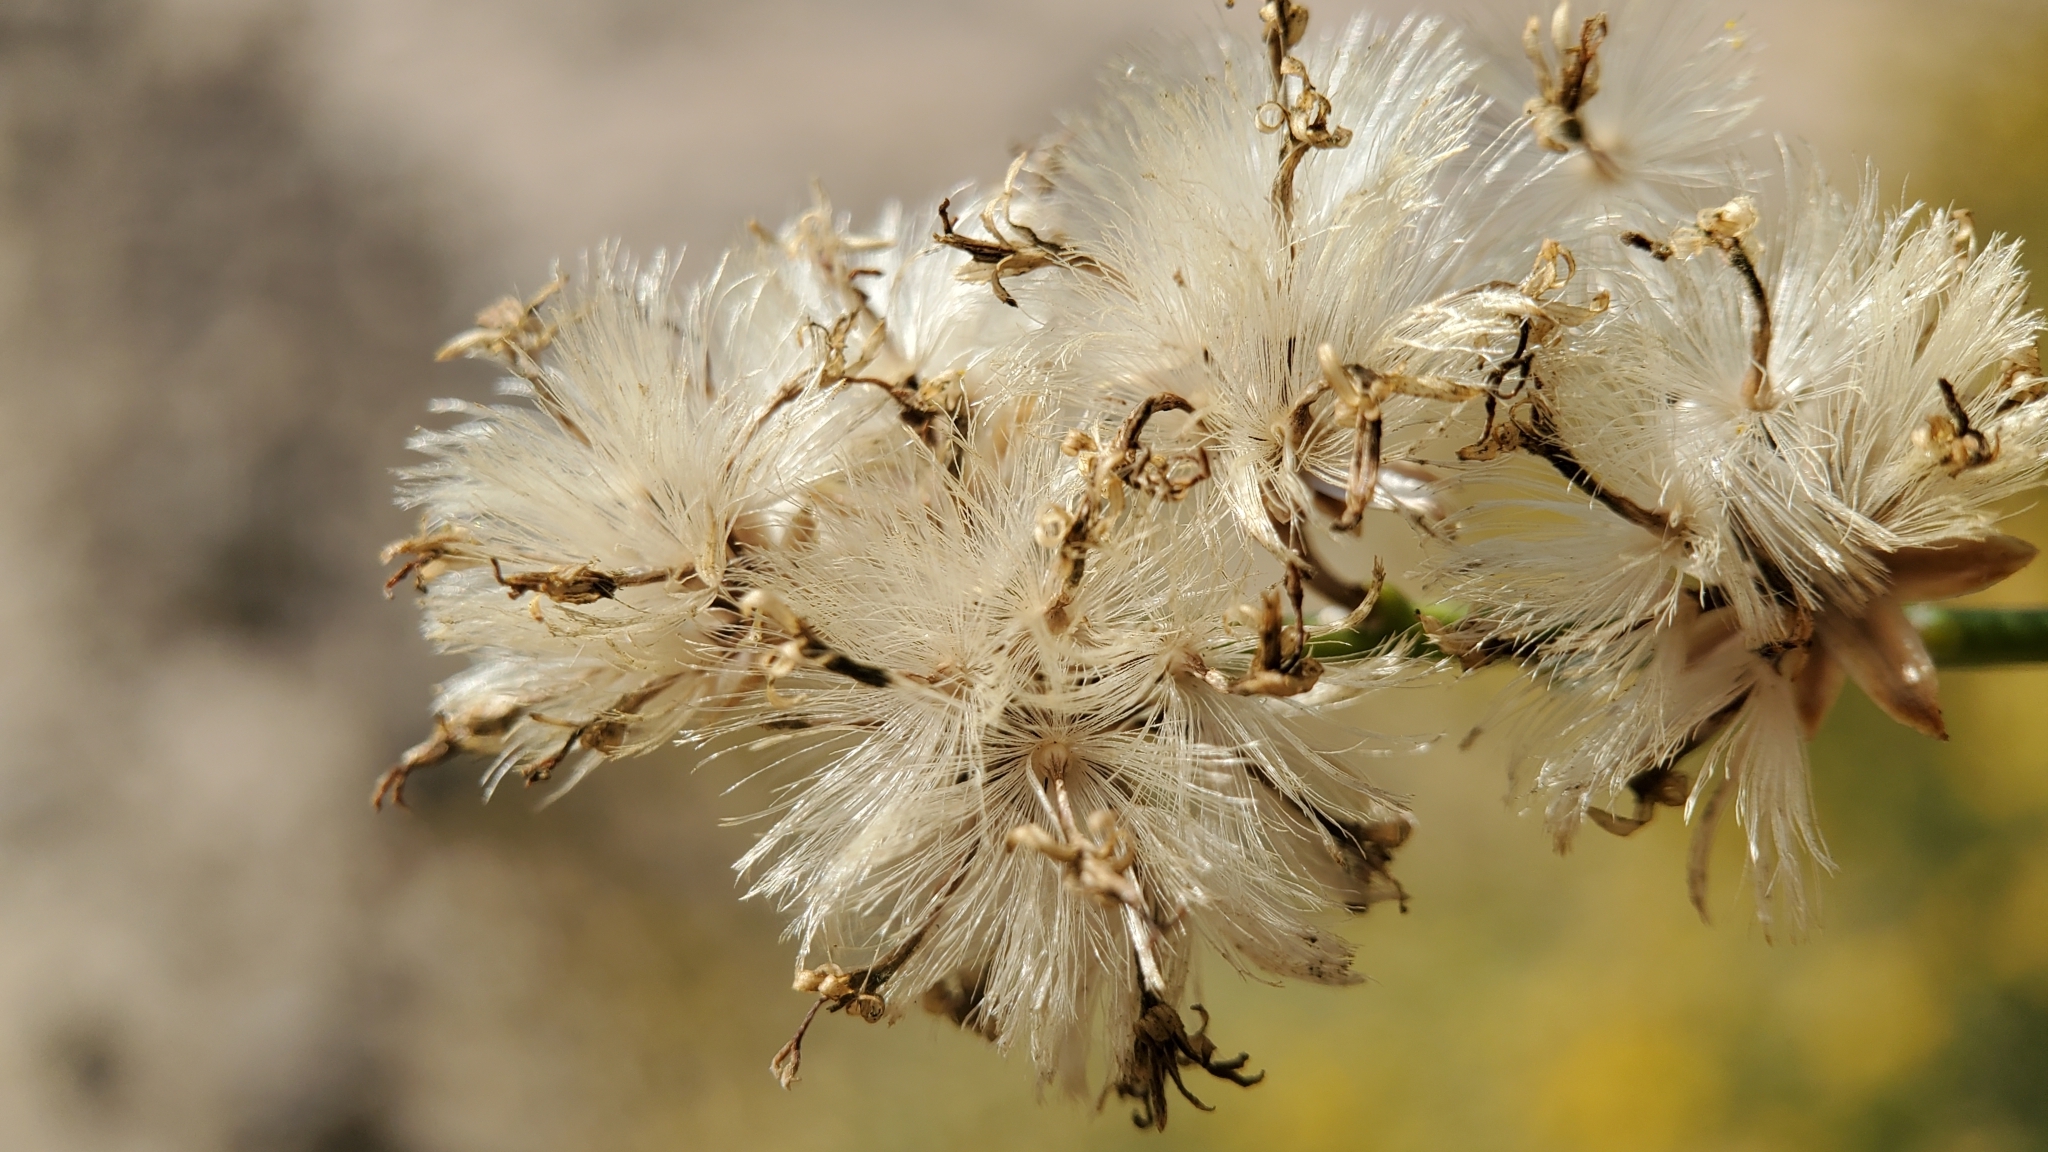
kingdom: Plantae
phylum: Tracheophyta
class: Magnoliopsida
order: Asterales
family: Asteraceae
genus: Lepidospartum
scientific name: Lepidospartum squamatum
